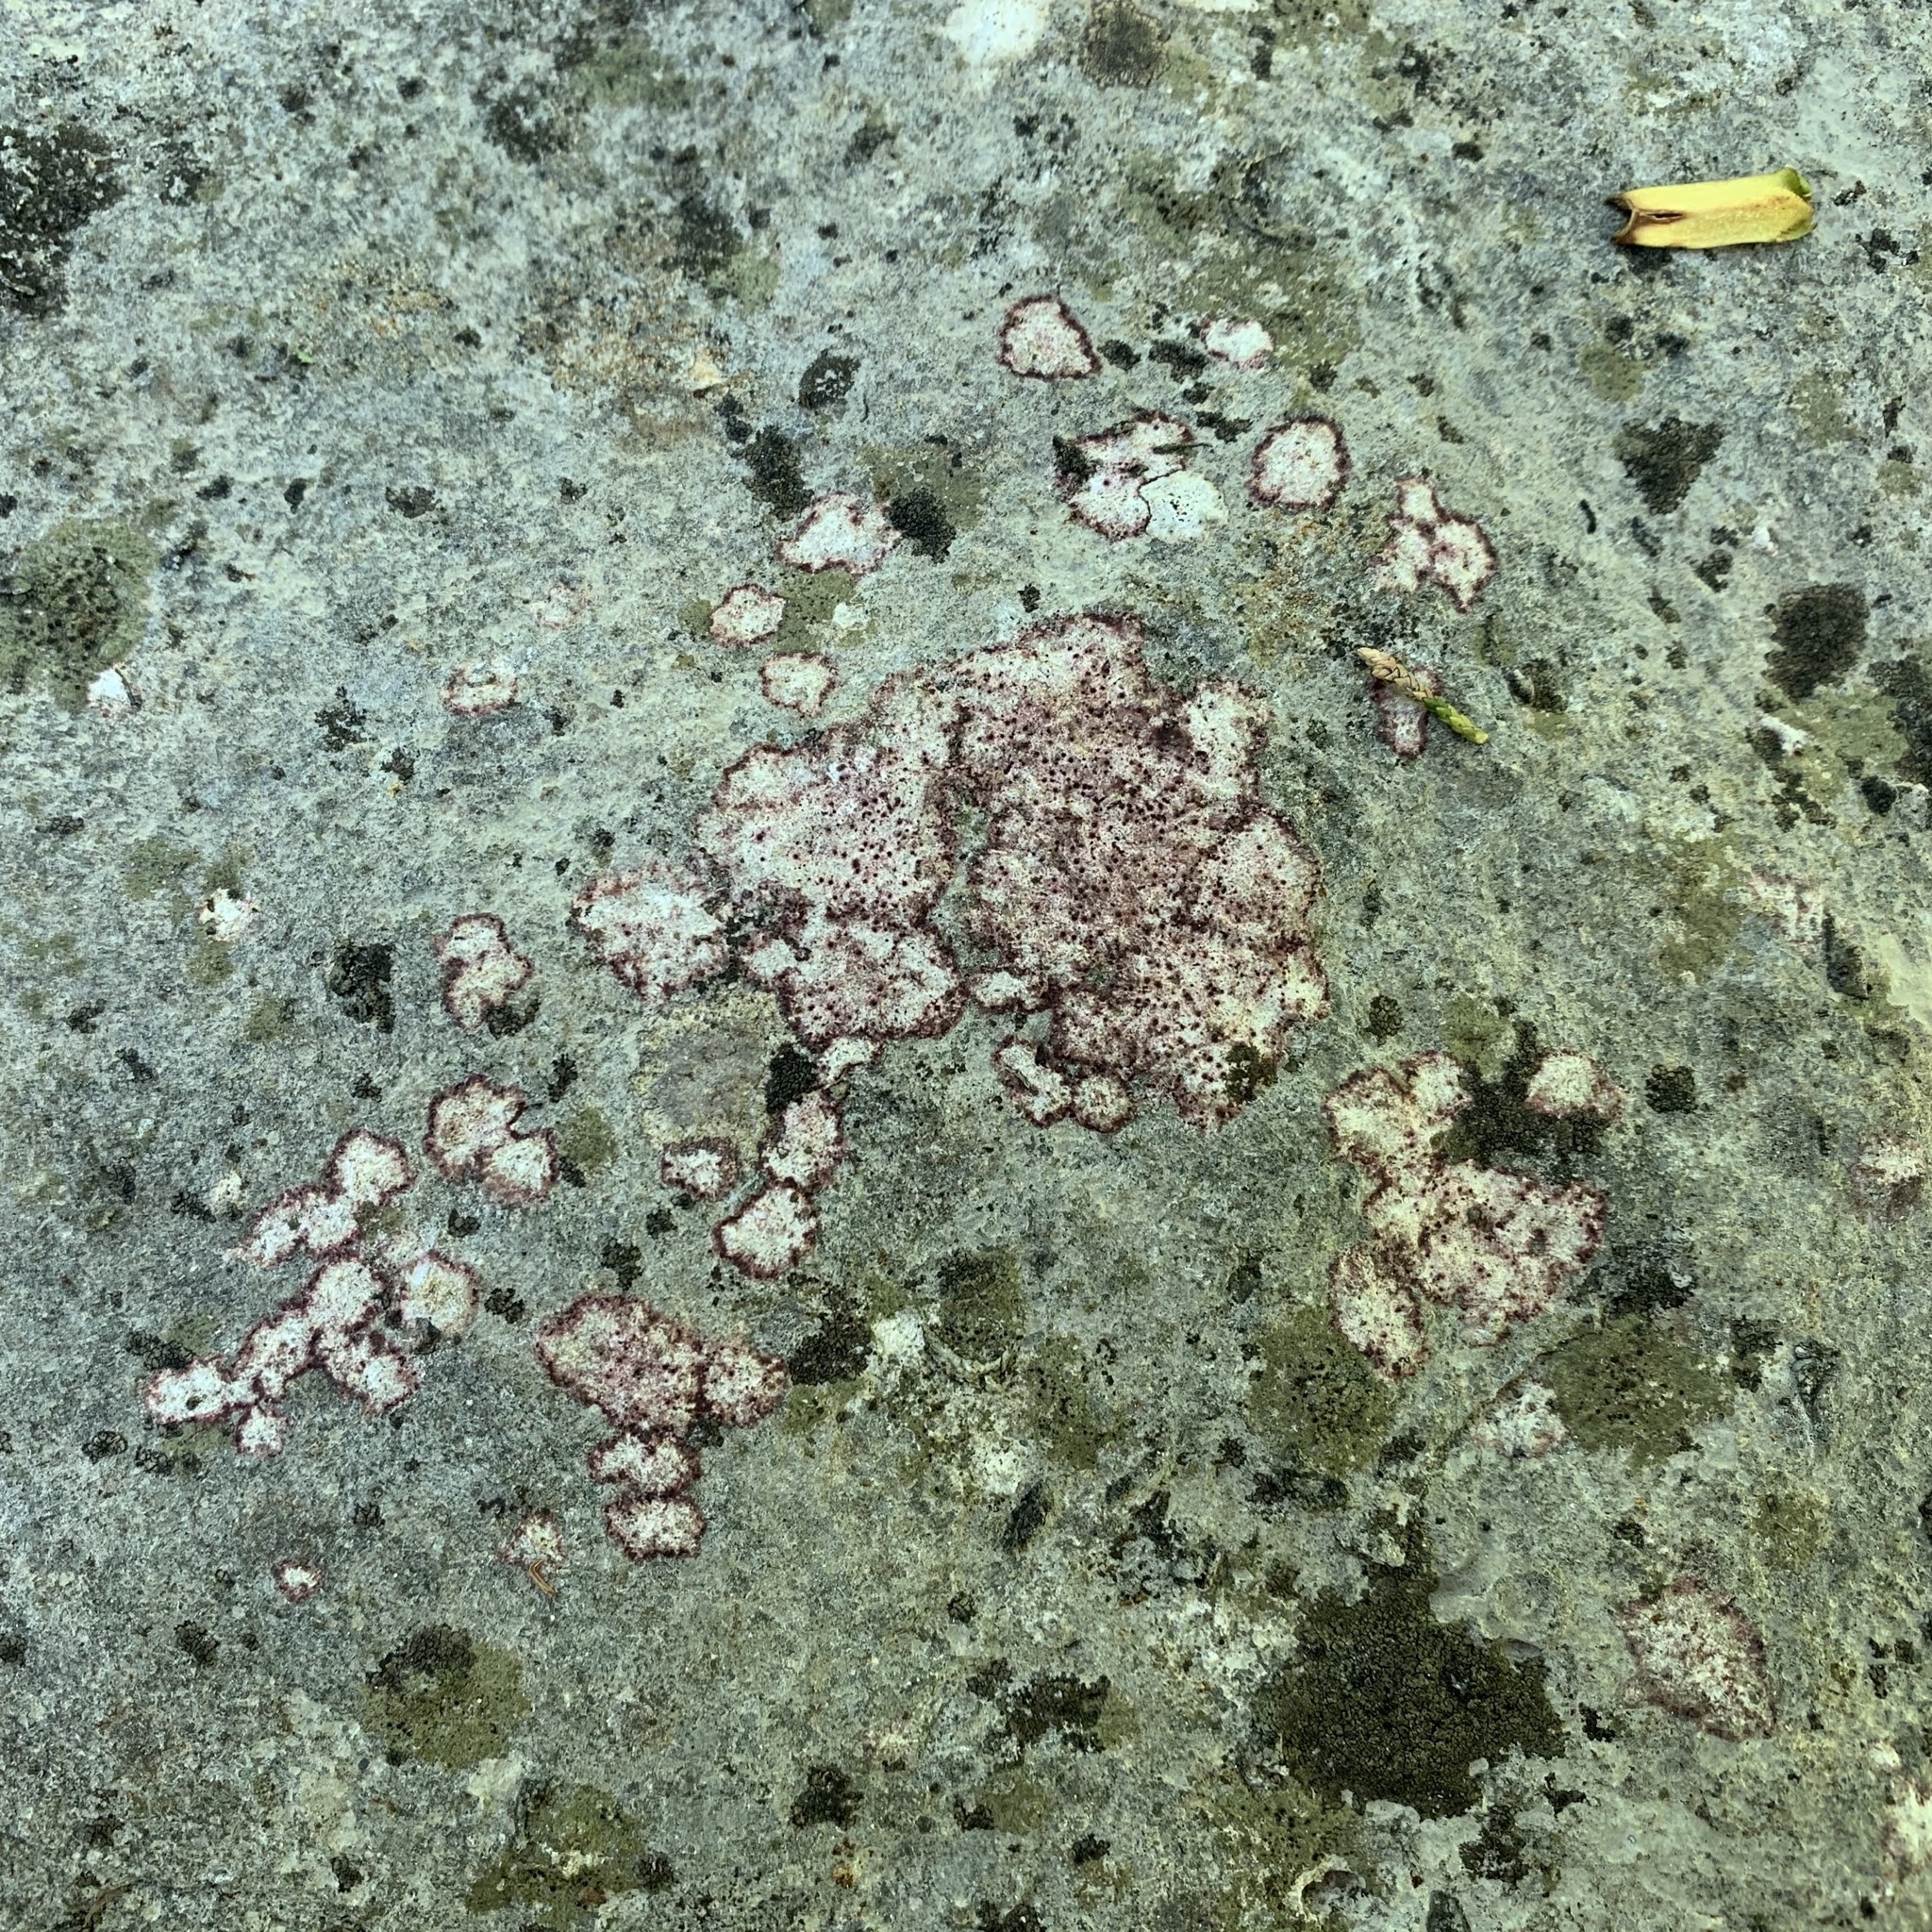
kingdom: Fungi
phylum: Ascomycota
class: Eurotiomycetes
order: Verrucariales
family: Verrucariaceae
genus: Bagliettoa
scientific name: Bagliettoa marmorea
